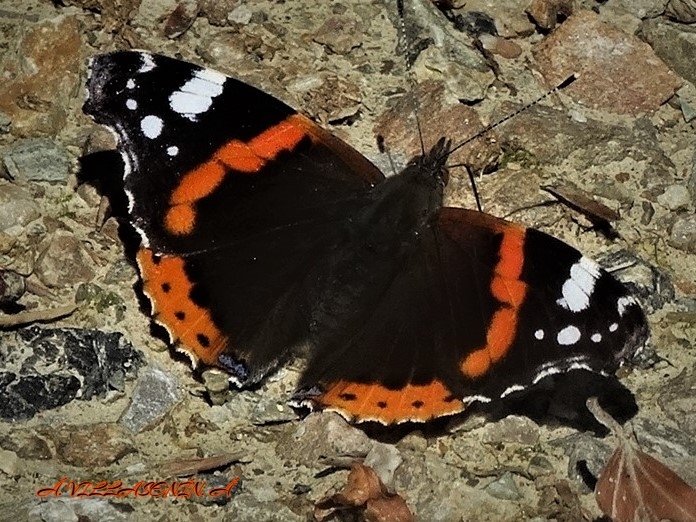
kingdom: Animalia
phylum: Arthropoda
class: Insecta
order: Lepidoptera
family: Nymphalidae
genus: Vanessa
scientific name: Vanessa atalanta
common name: Red admiral
